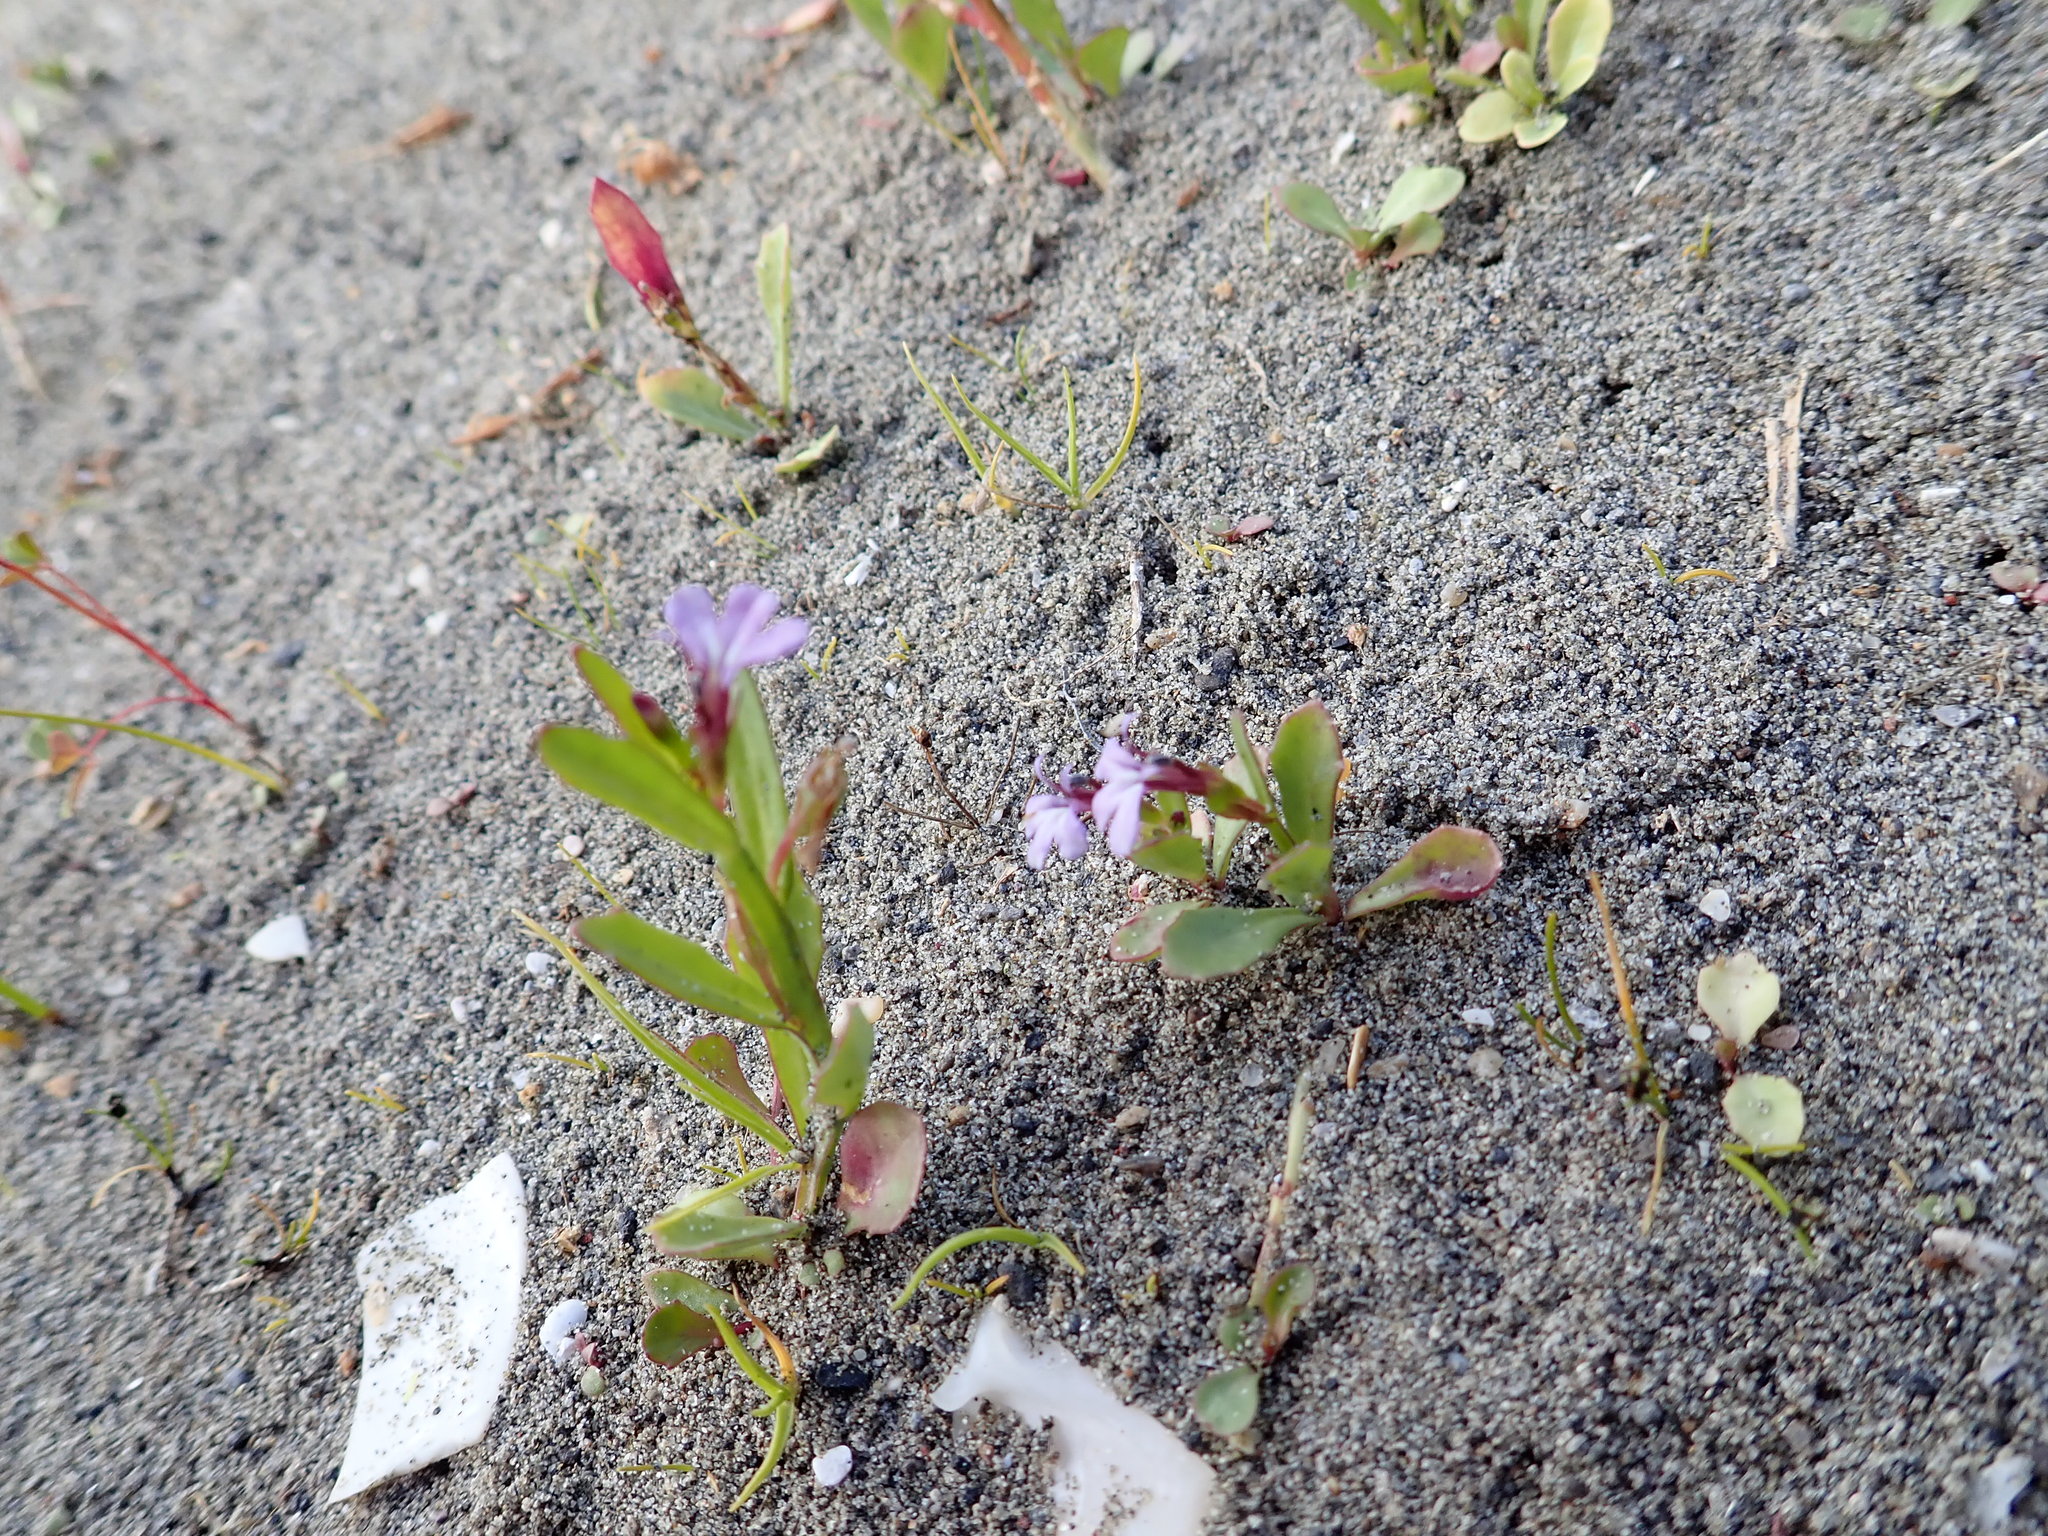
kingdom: Plantae
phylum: Tracheophyta
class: Magnoliopsida
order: Asterales
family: Campanulaceae
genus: Lobelia
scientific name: Lobelia anceps
